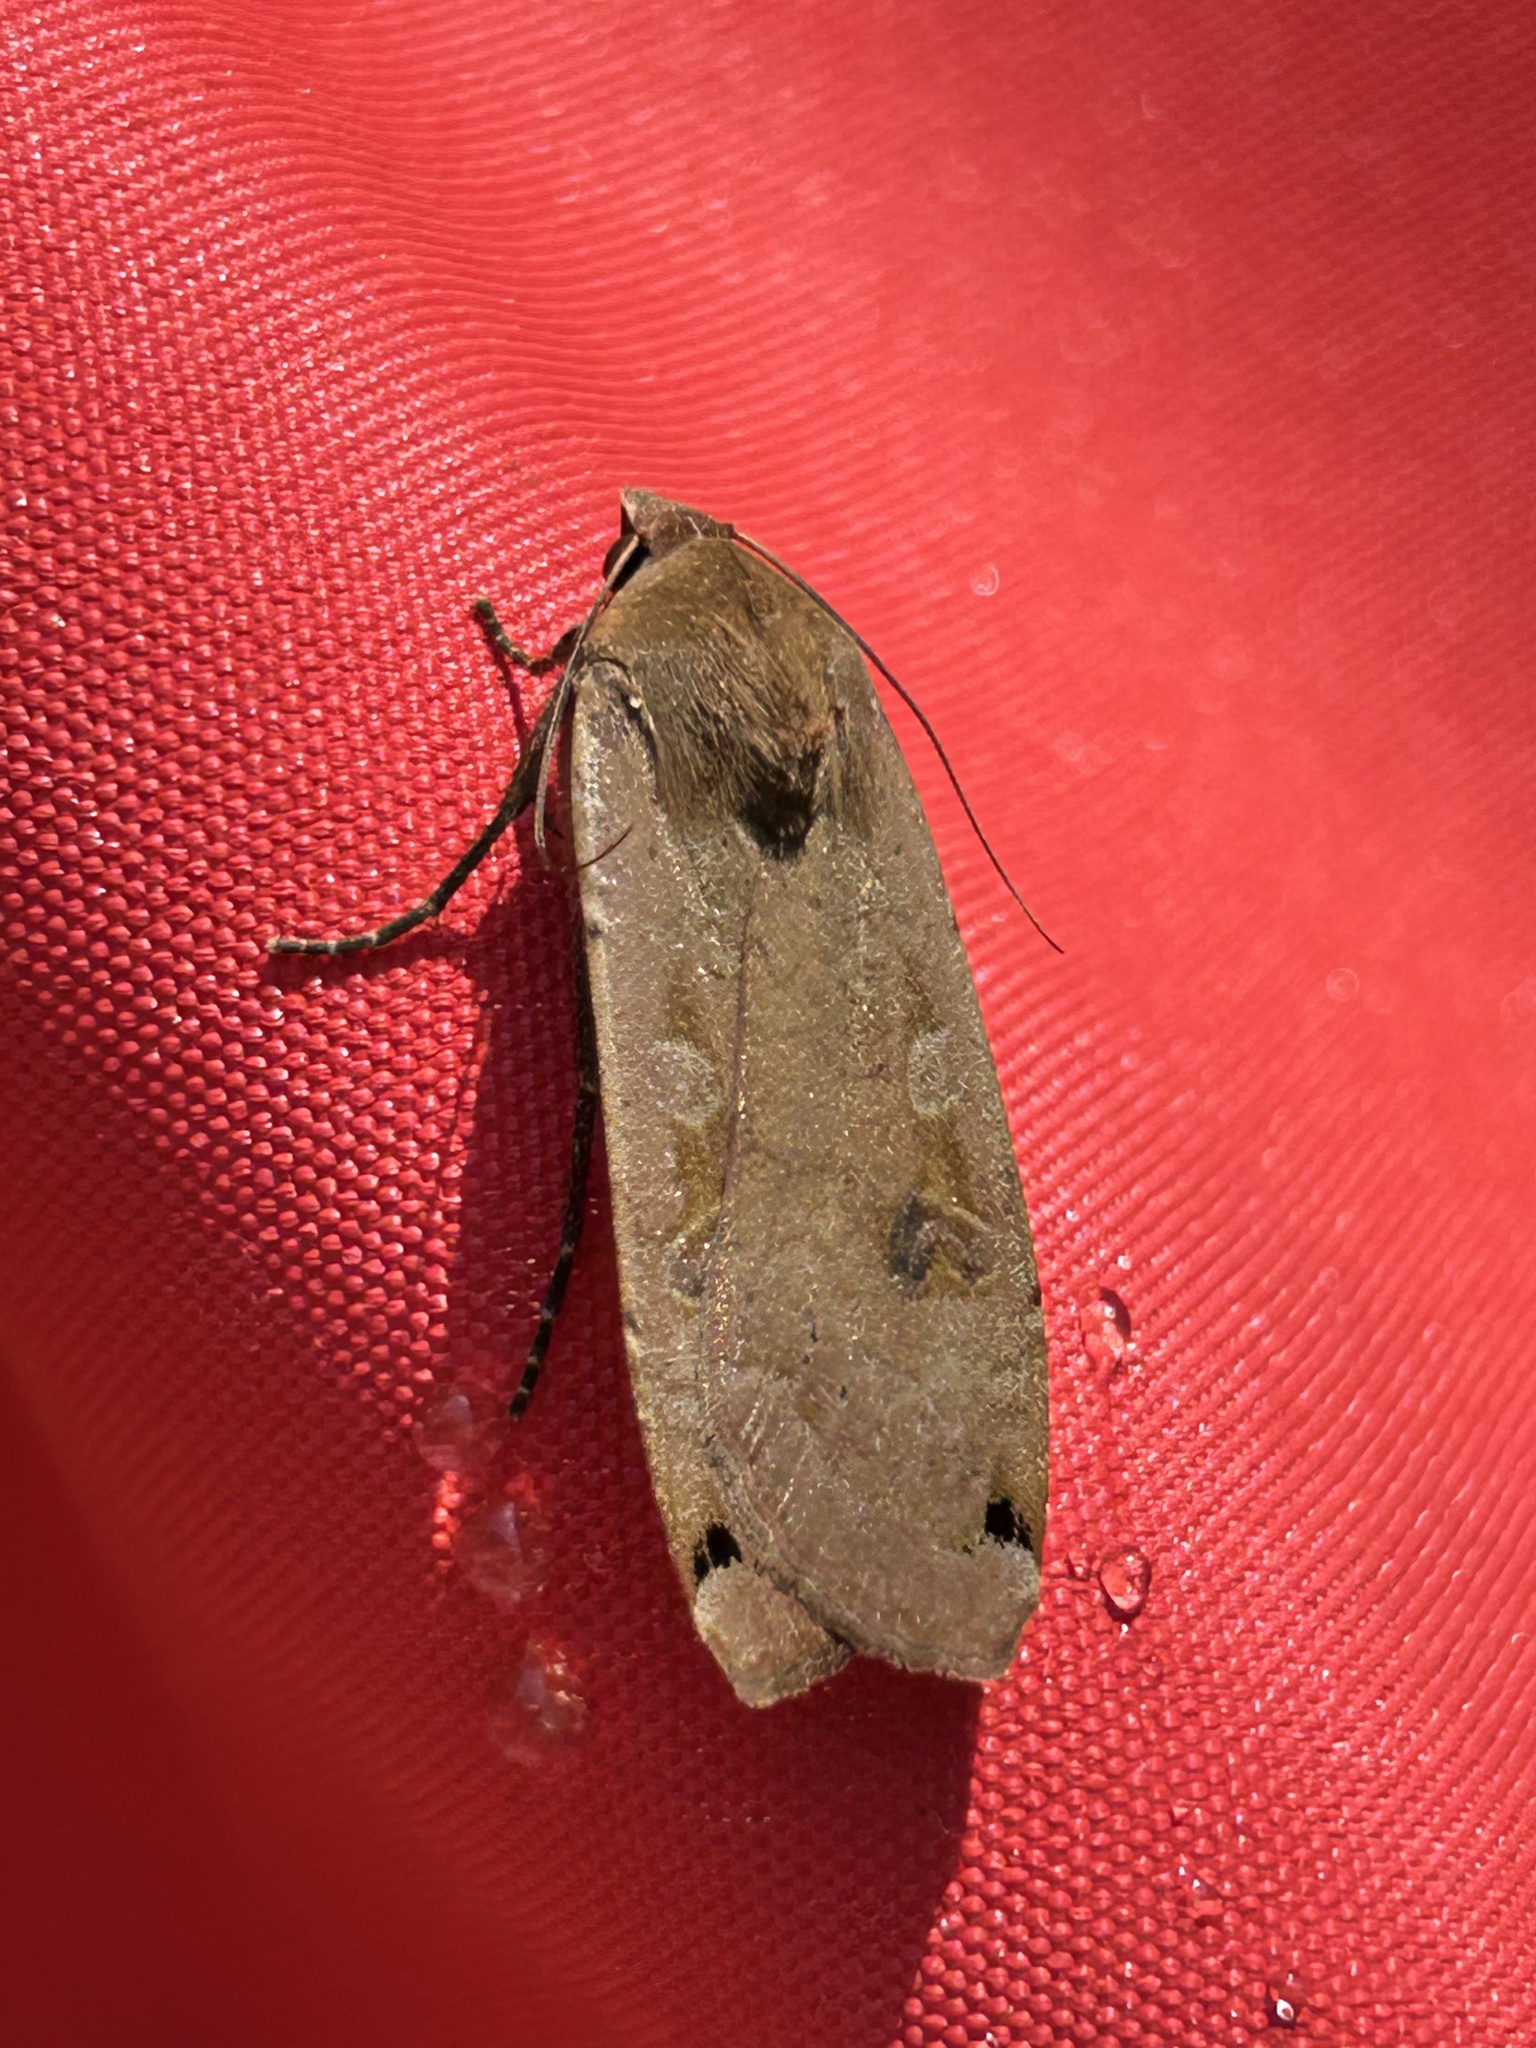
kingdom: Animalia
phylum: Arthropoda
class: Insecta
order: Lepidoptera
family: Noctuidae
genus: Noctua
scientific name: Noctua pronuba
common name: Large yellow underwing
